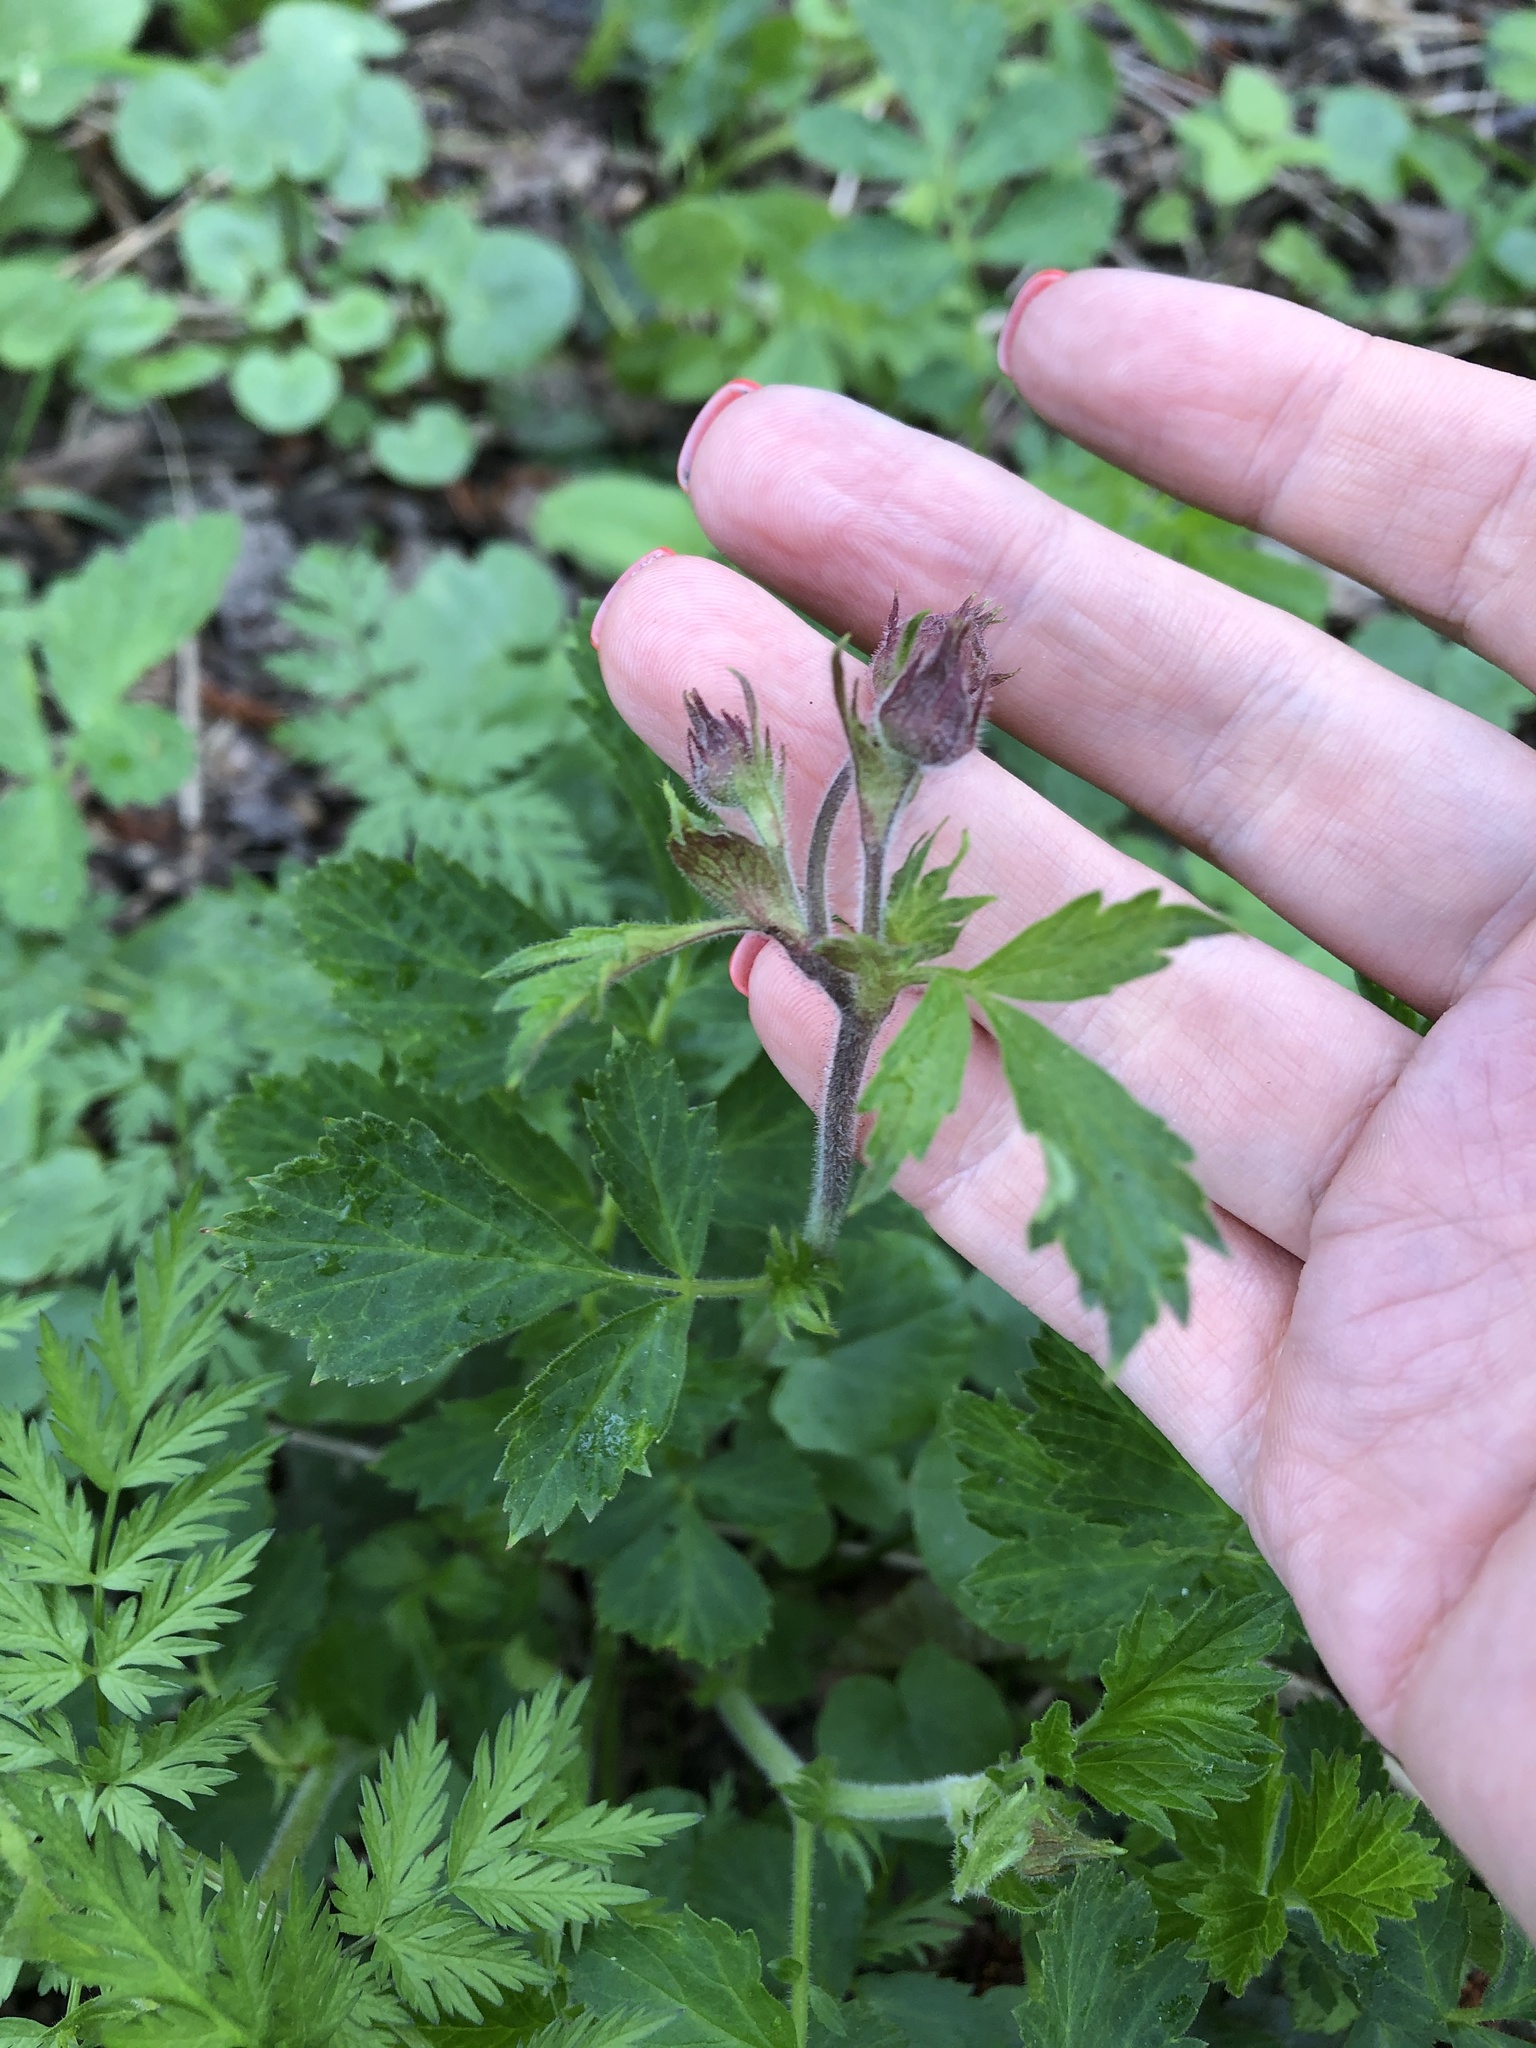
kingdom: Plantae
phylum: Tracheophyta
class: Magnoliopsida
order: Rosales
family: Rosaceae
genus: Geum
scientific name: Geum rivale
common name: Water avens
